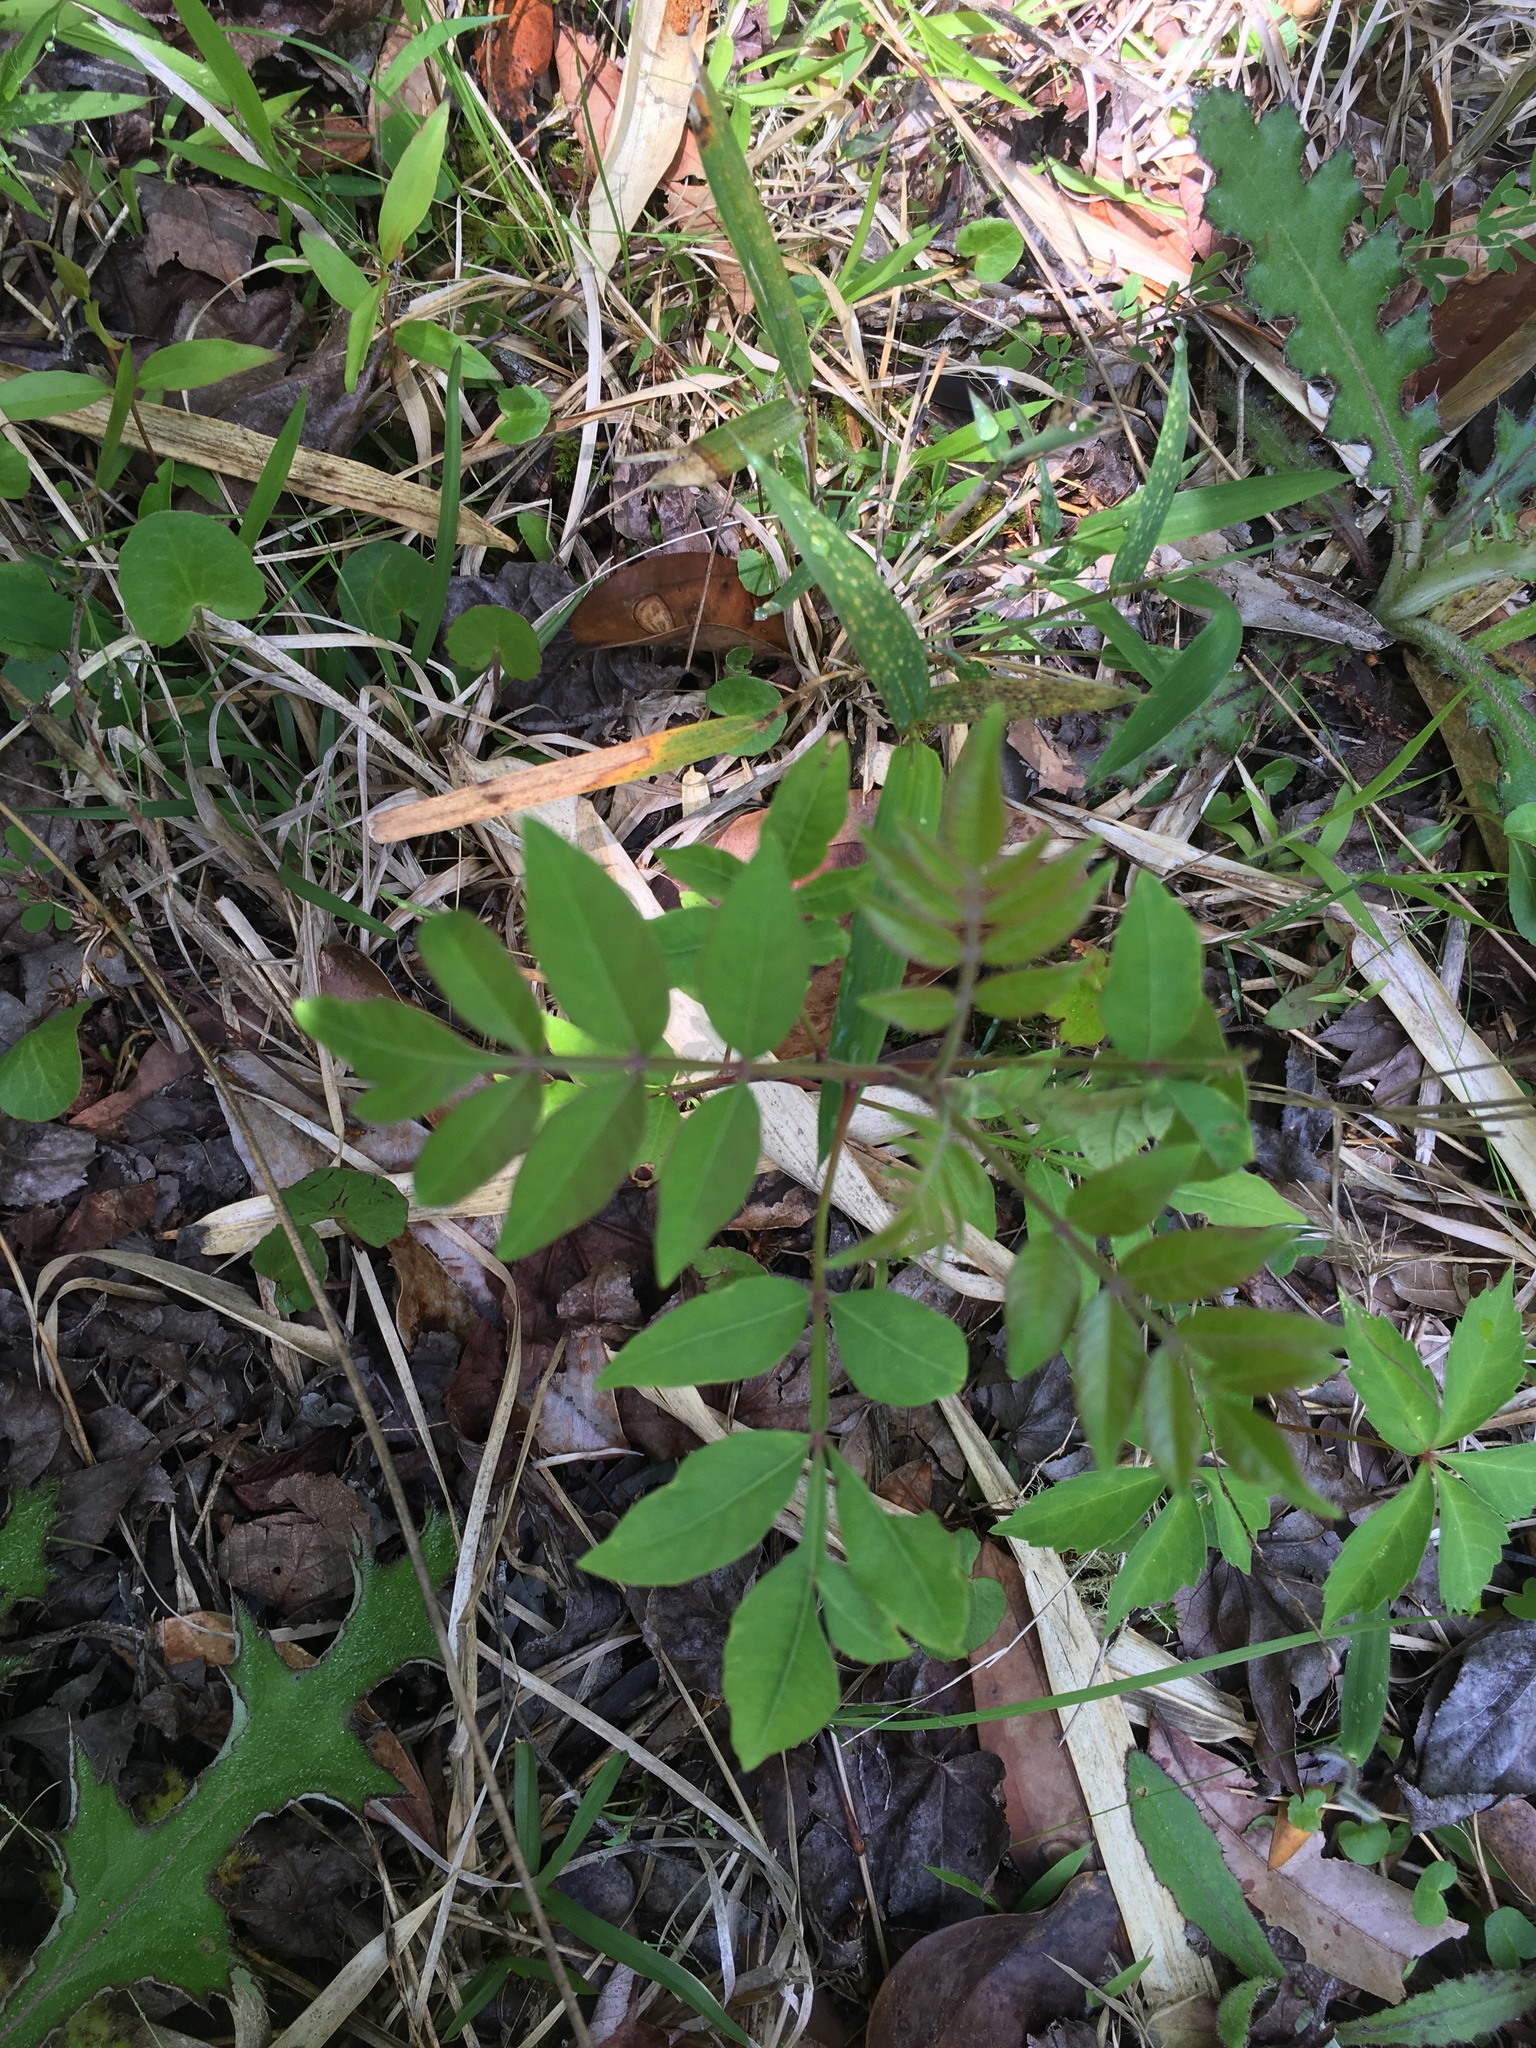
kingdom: Plantae
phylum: Tracheophyta
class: Magnoliopsida
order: Sapindales
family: Anacardiaceae
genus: Rhus
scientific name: Rhus copallina
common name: Shining sumac
